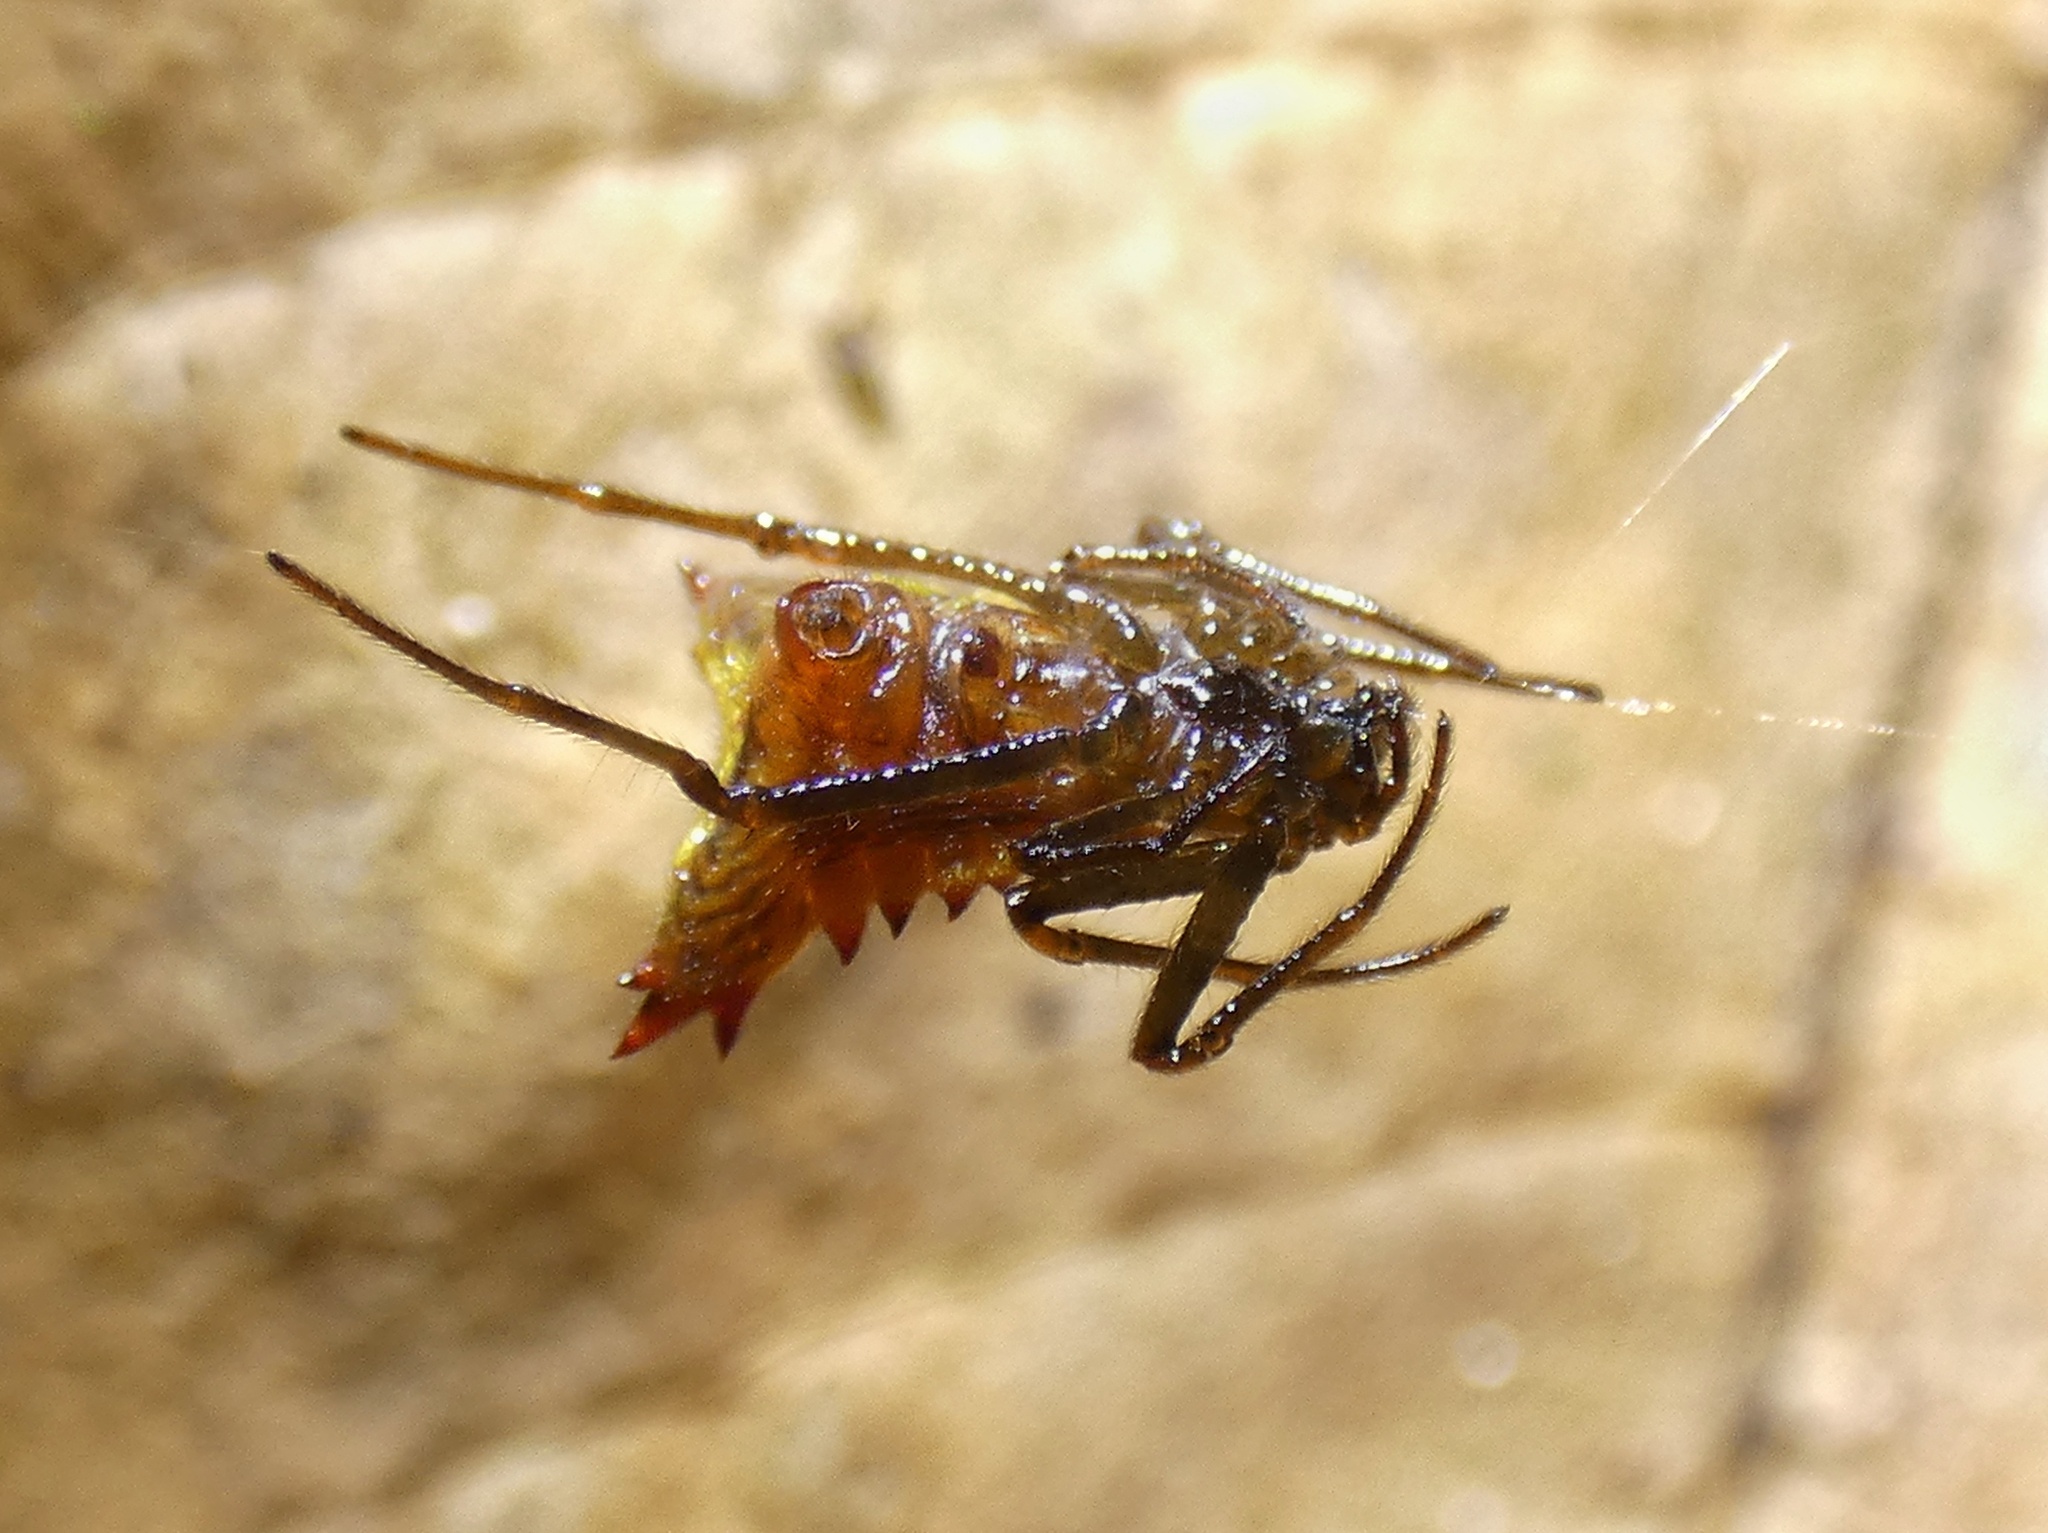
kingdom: Animalia
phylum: Arthropoda
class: Arachnida
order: Araneae
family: Araneidae
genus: Micrathena
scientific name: Micrathena triangularis
